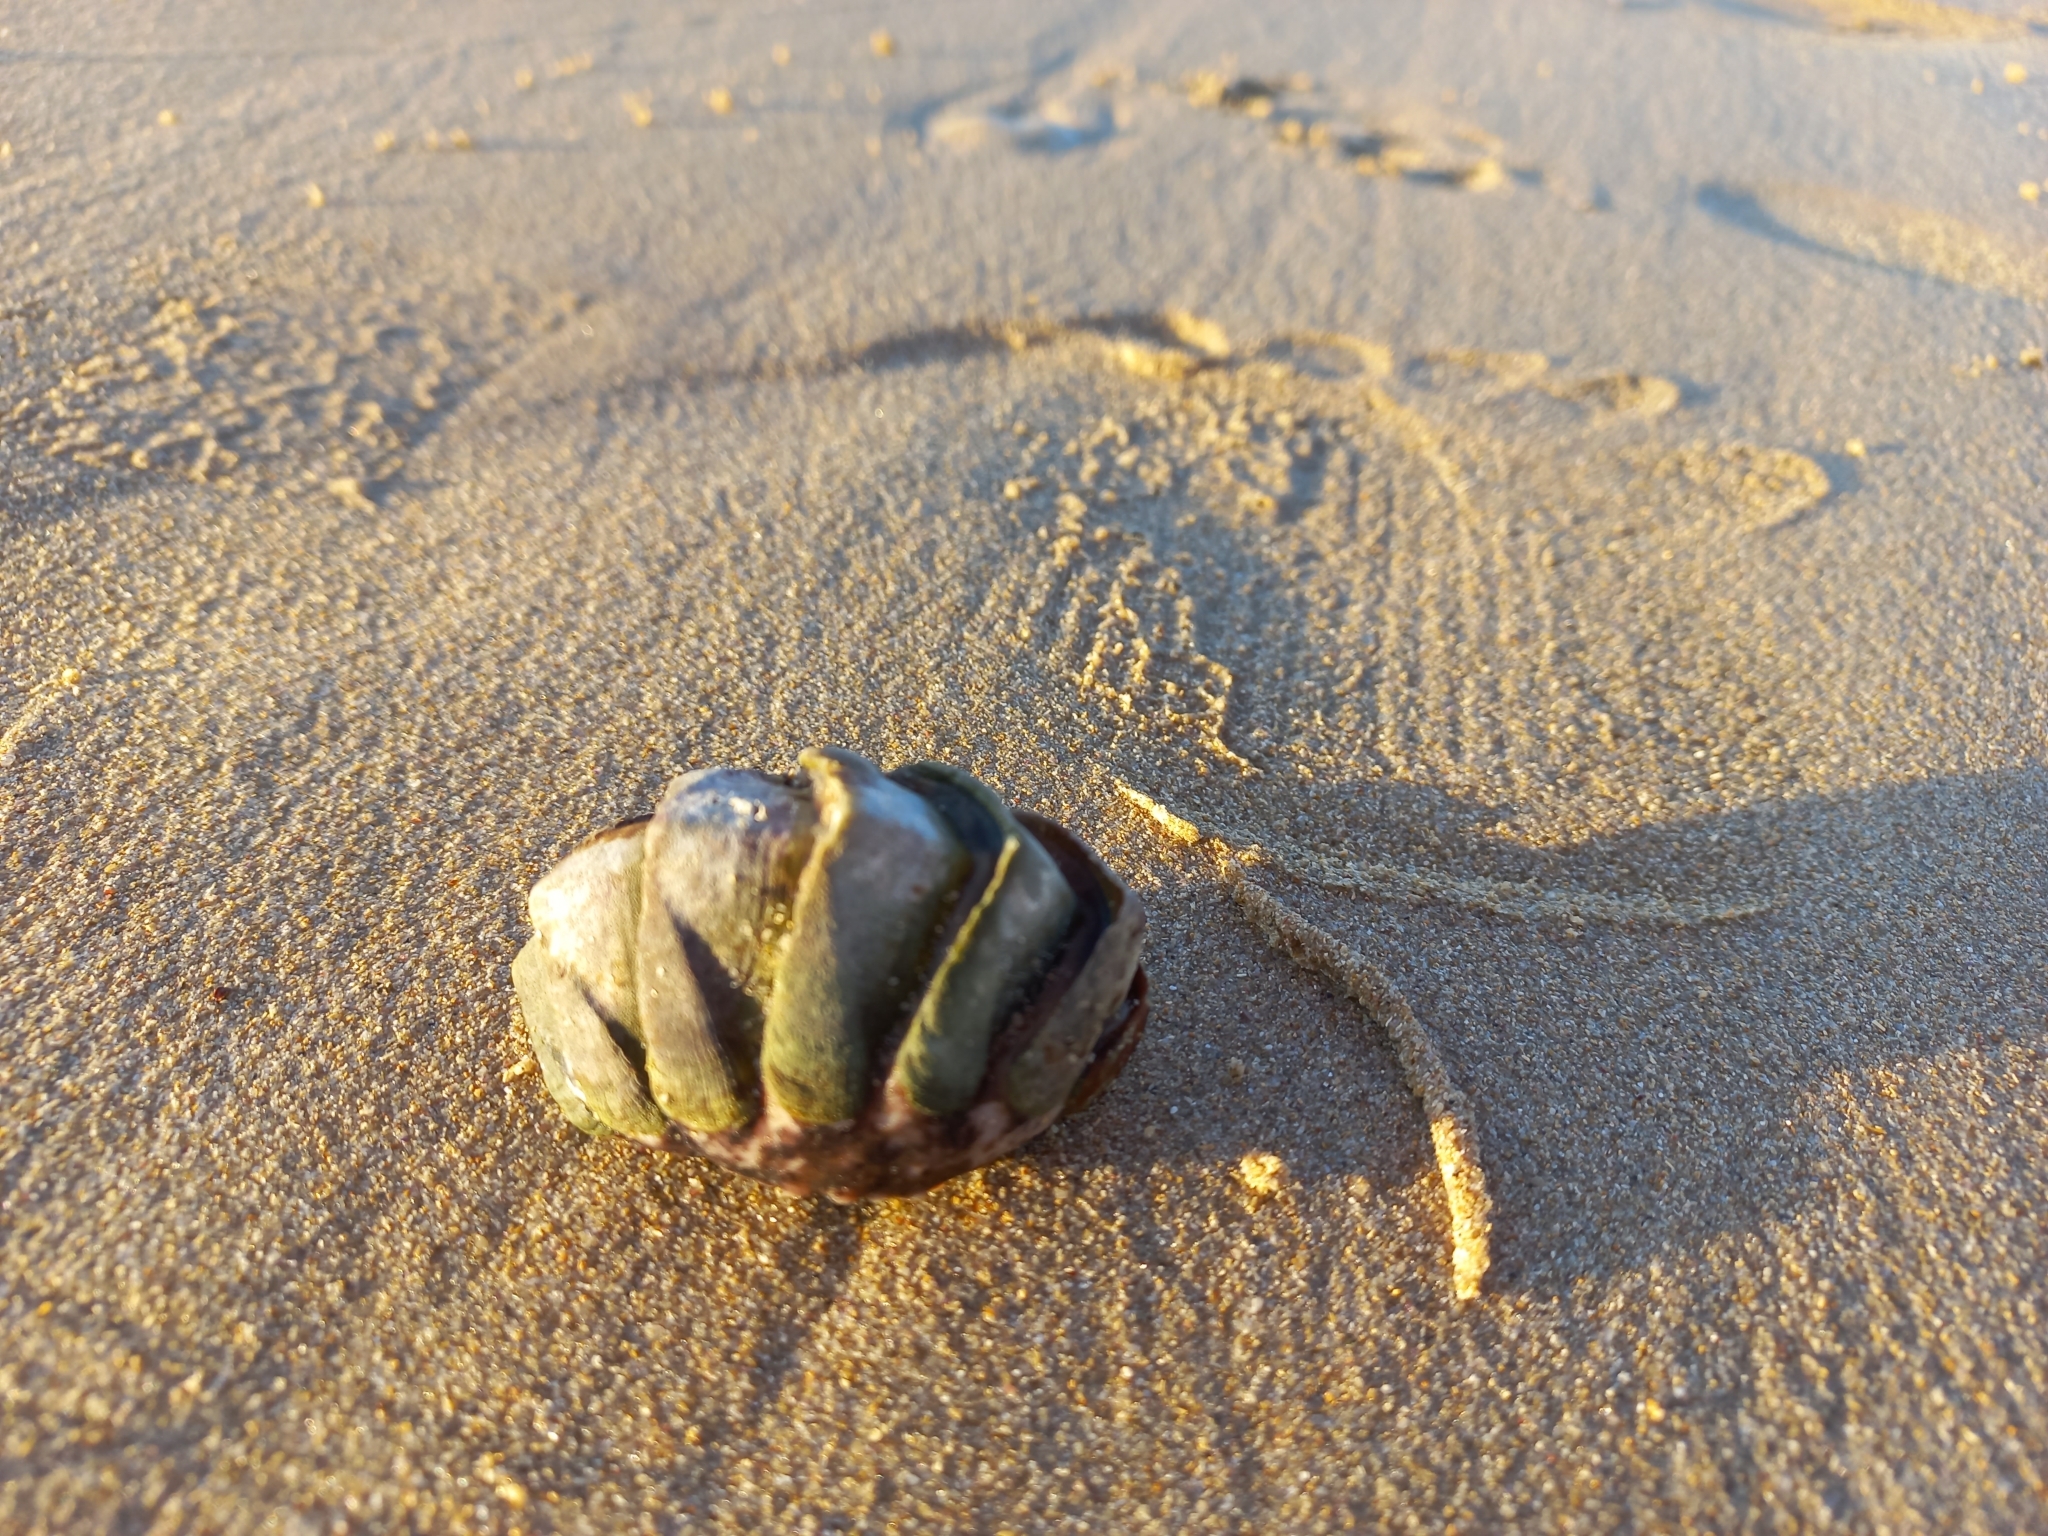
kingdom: Animalia
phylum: Mollusca
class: Polyplacophora
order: Chitonida
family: Chaetopleuridae
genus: Dinoplax
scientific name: Dinoplax gigas
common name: Armadillo
